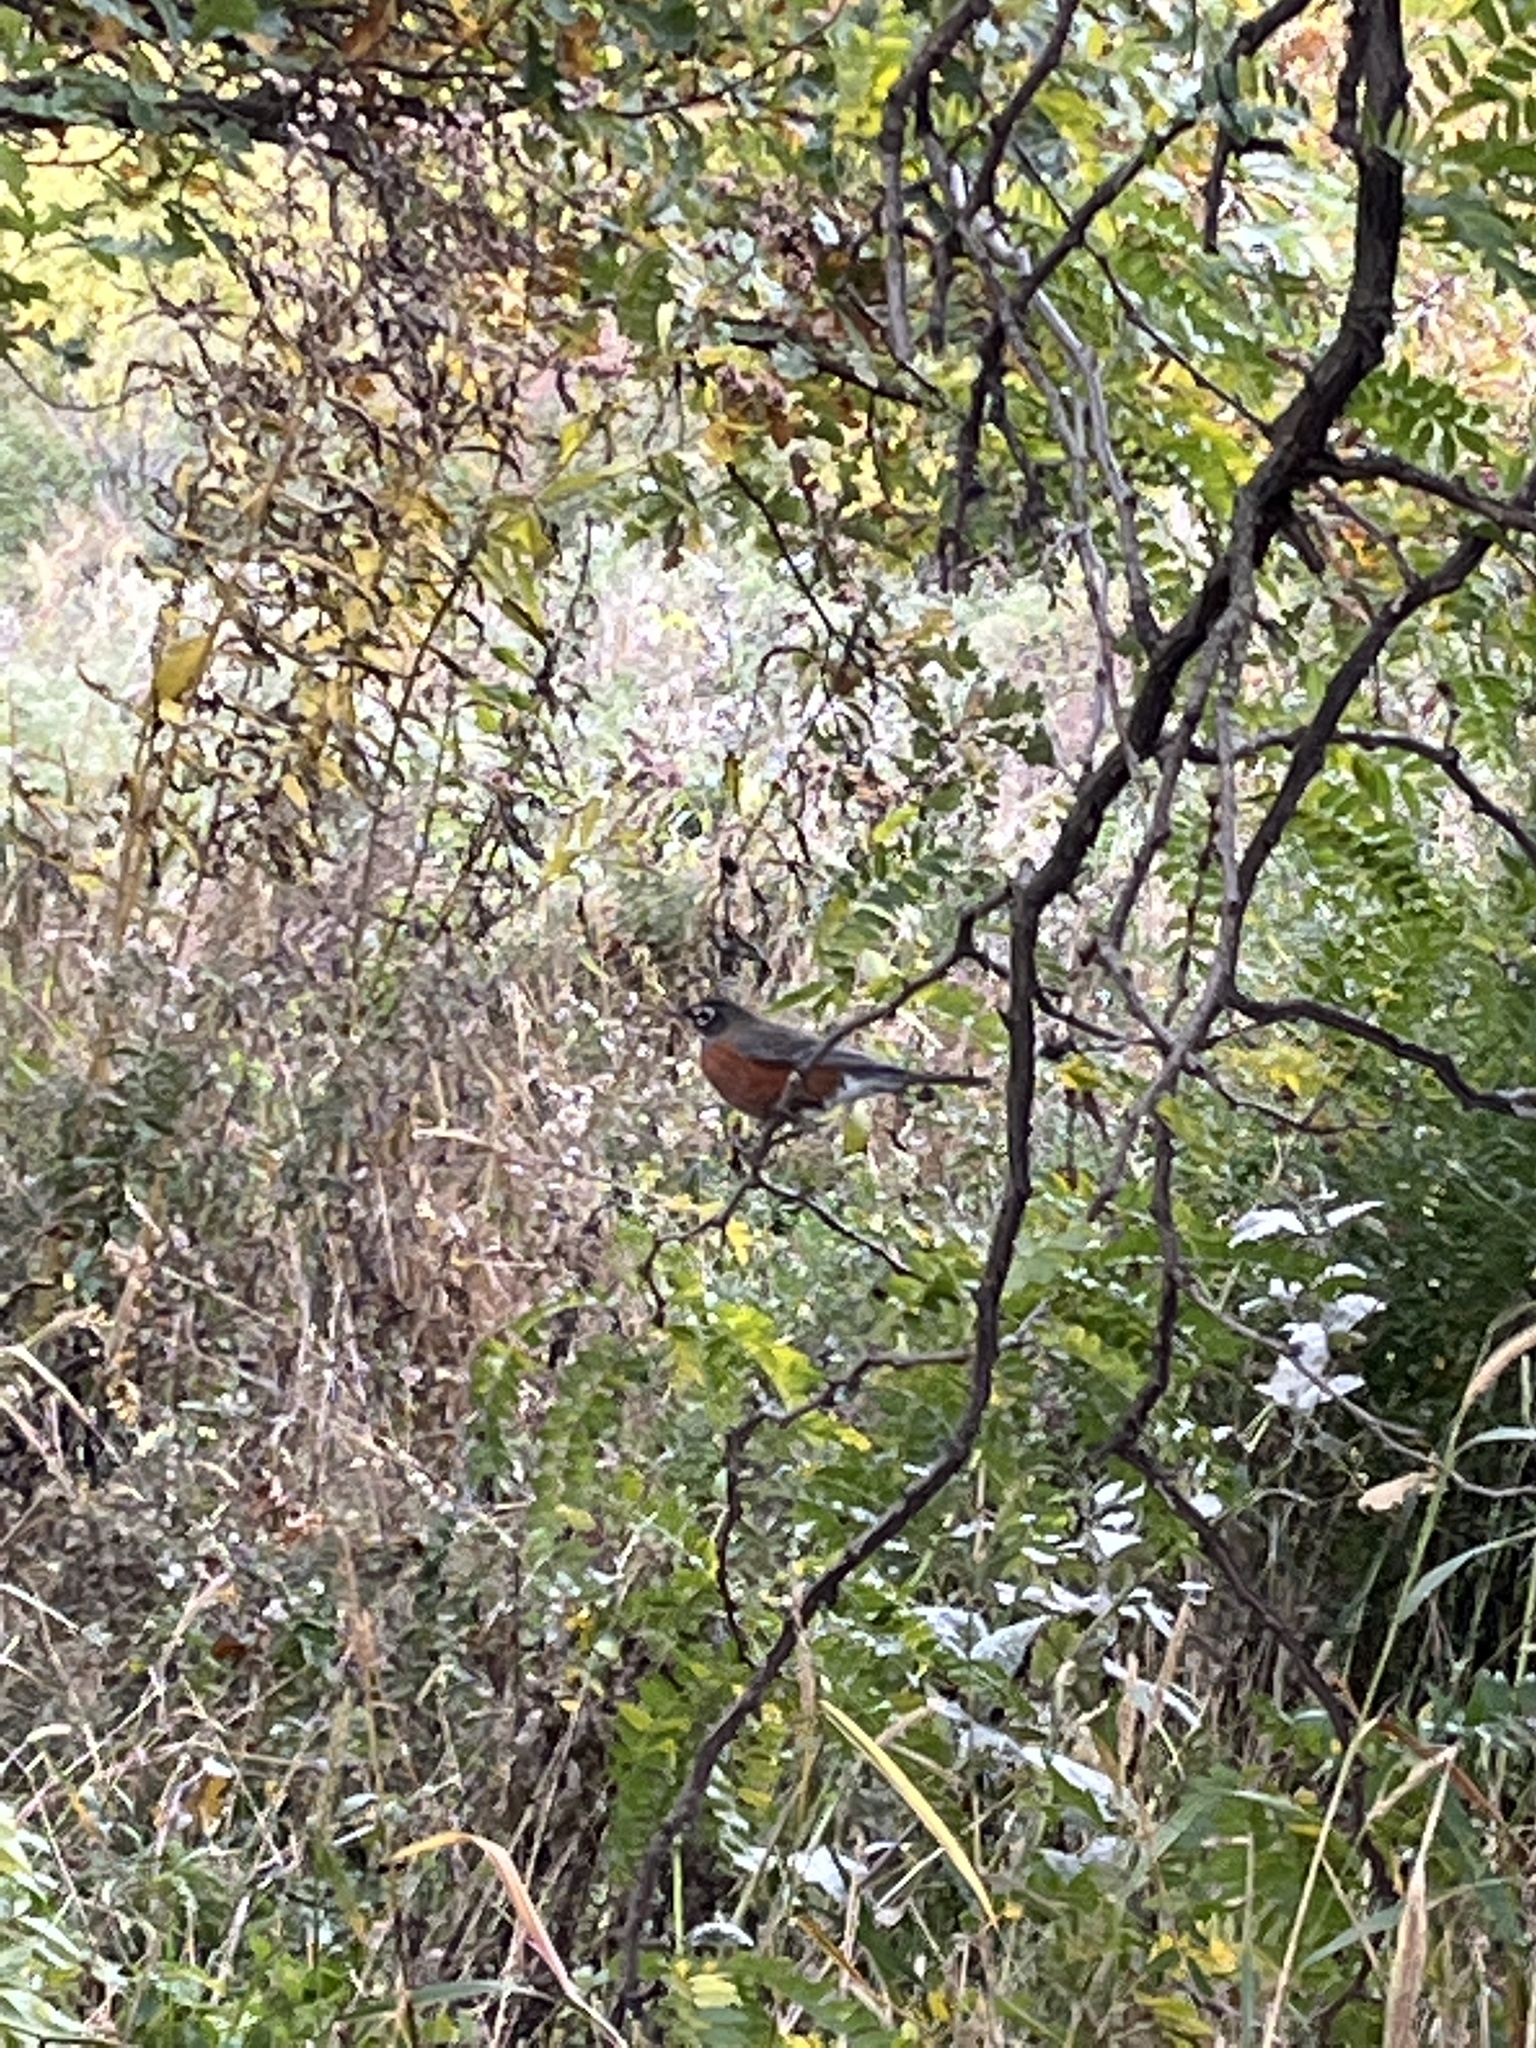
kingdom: Animalia
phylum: Chordata
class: Aves
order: Passeriformes
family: Turdidae
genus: Turdus
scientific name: Turdus migratorius
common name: American robin
